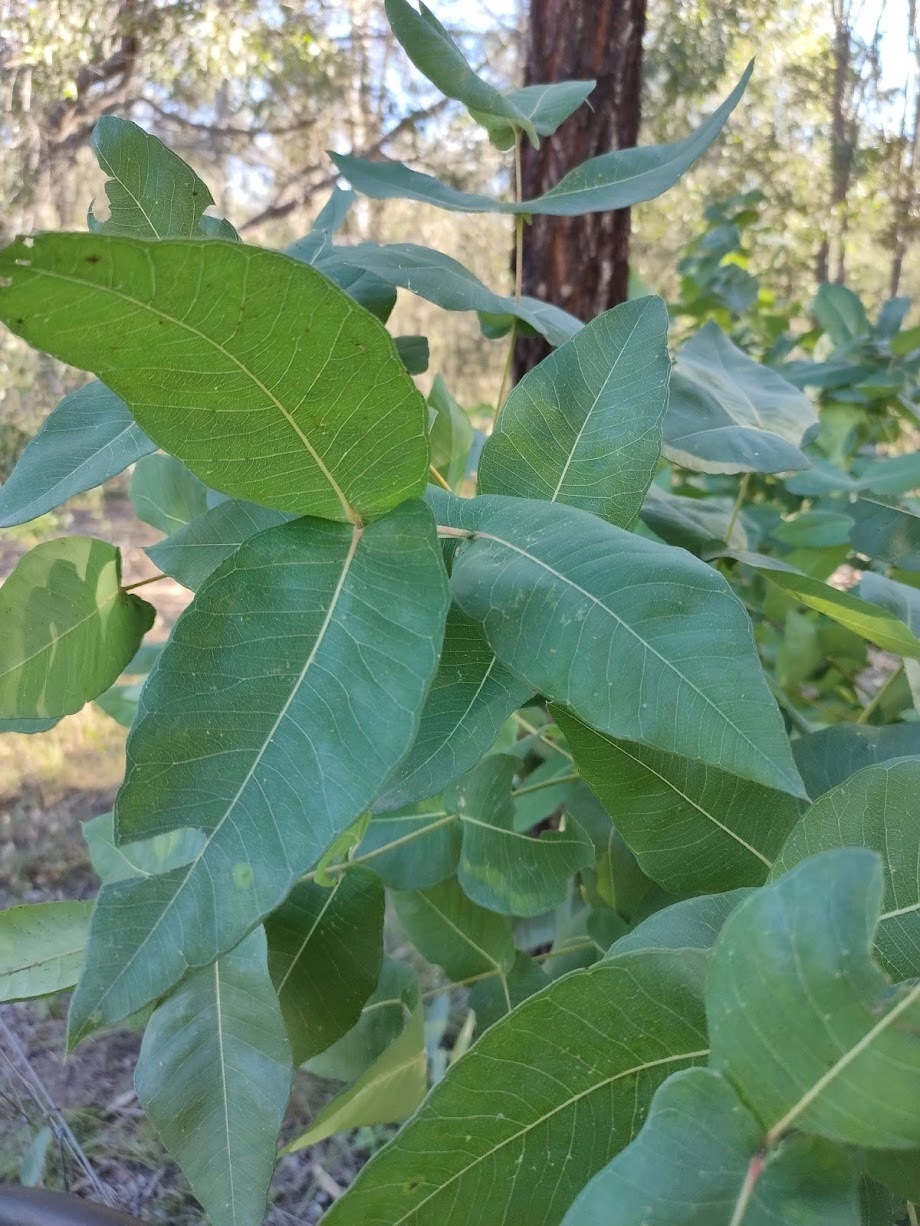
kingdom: Plantae
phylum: Tracheophyta
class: Magnoliopsida
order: Myrtales
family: Myrtaceae
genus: Angophora
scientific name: Angophora subvelutina
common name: Broad-leaved apple
